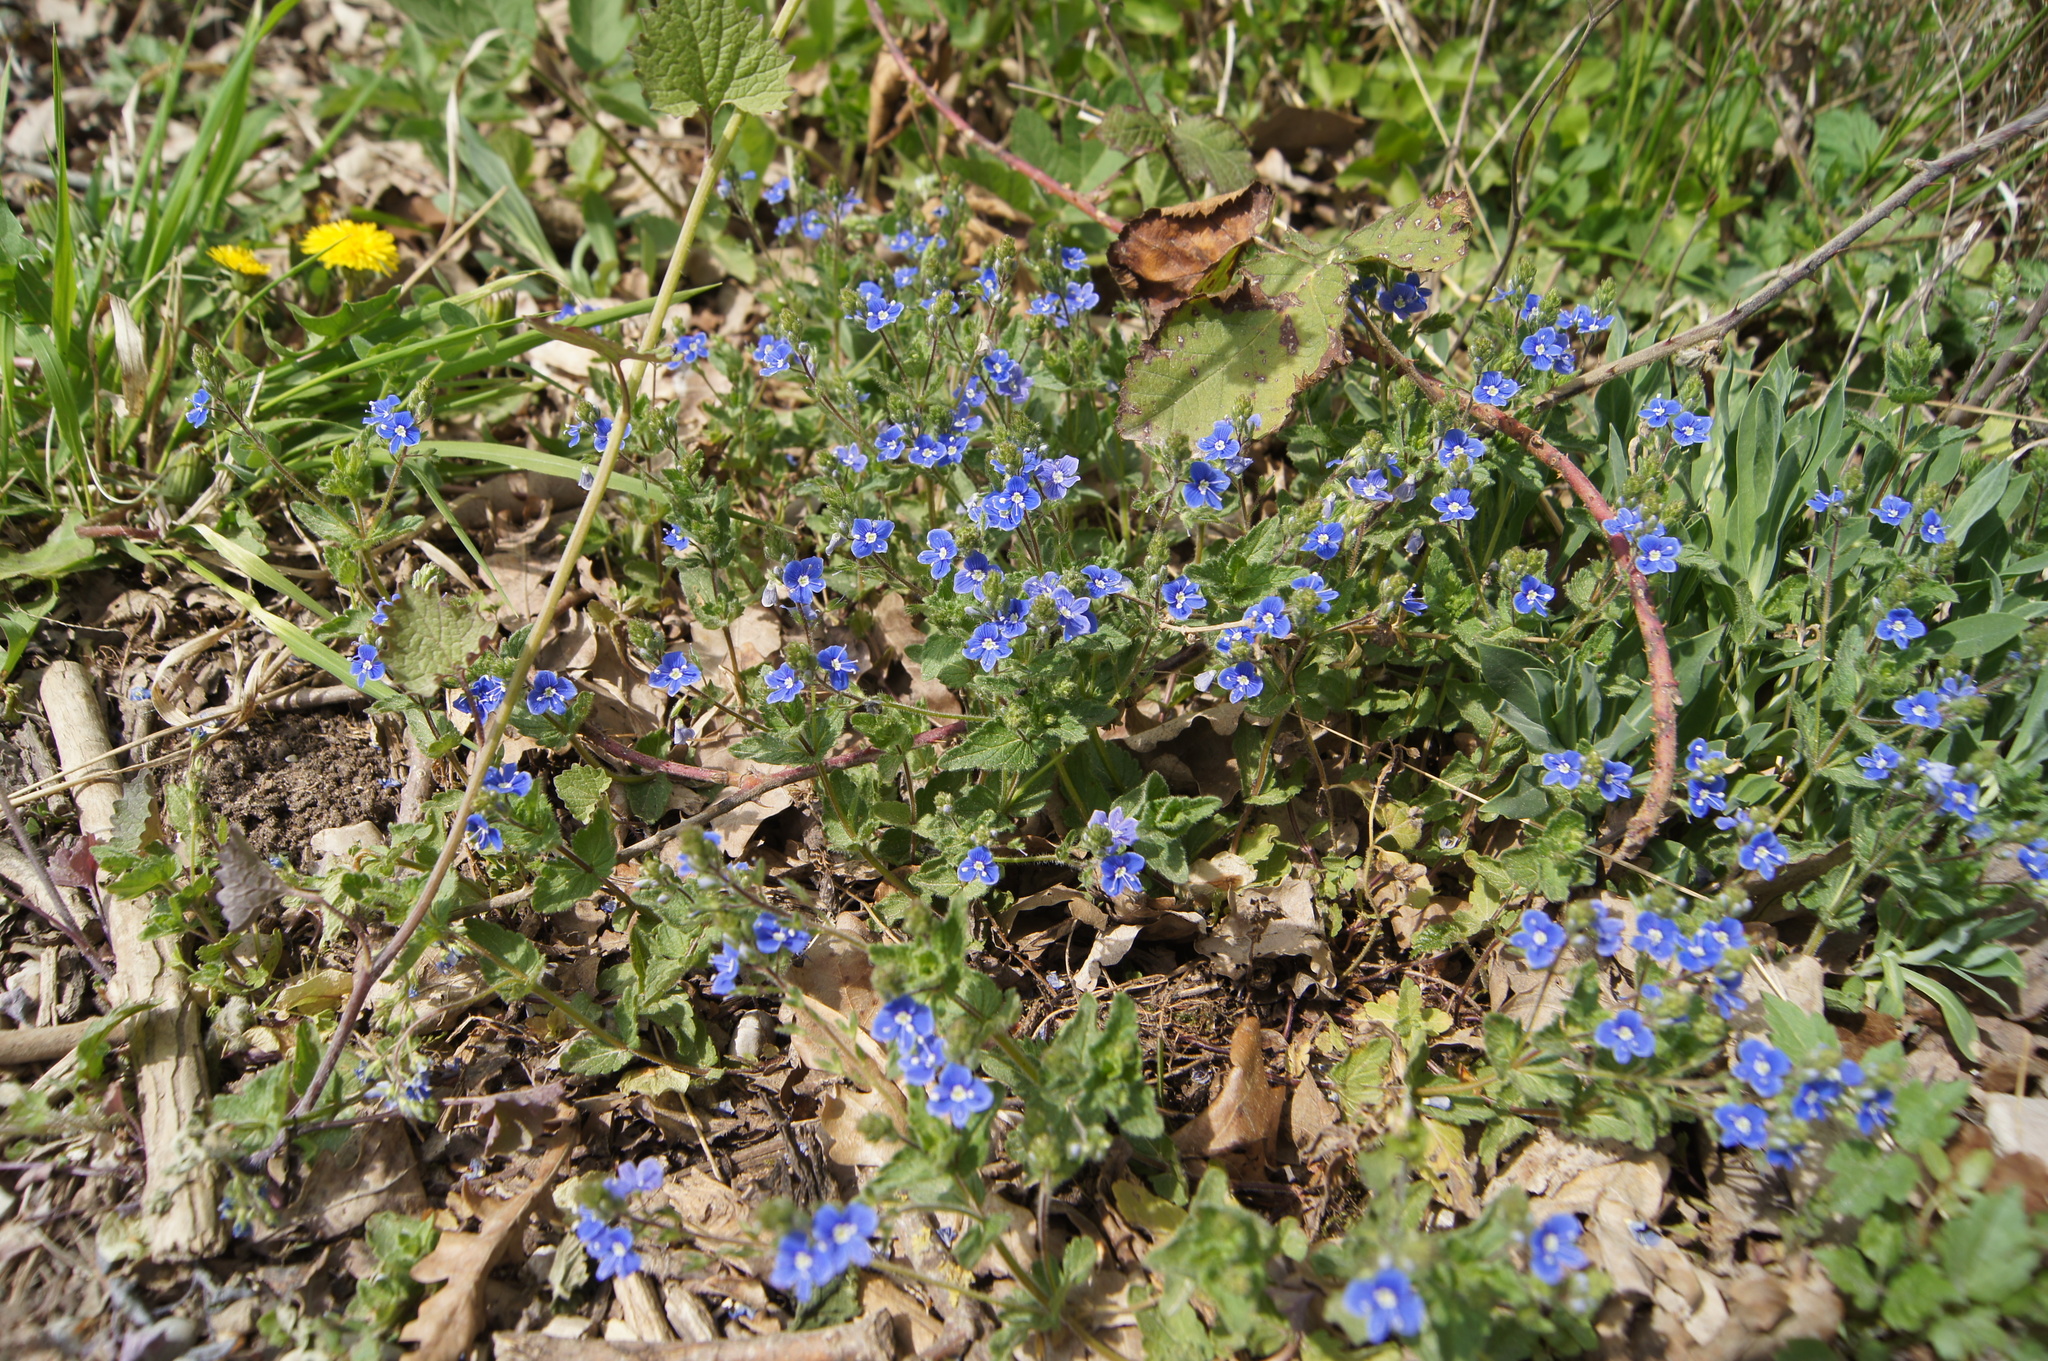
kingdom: Plantae
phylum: Tracheophyta
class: Magnoliopsida
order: Lamiales
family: Plantaginaceae
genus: Veronica
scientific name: Veronica chamaedrys
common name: Germander speedwell
